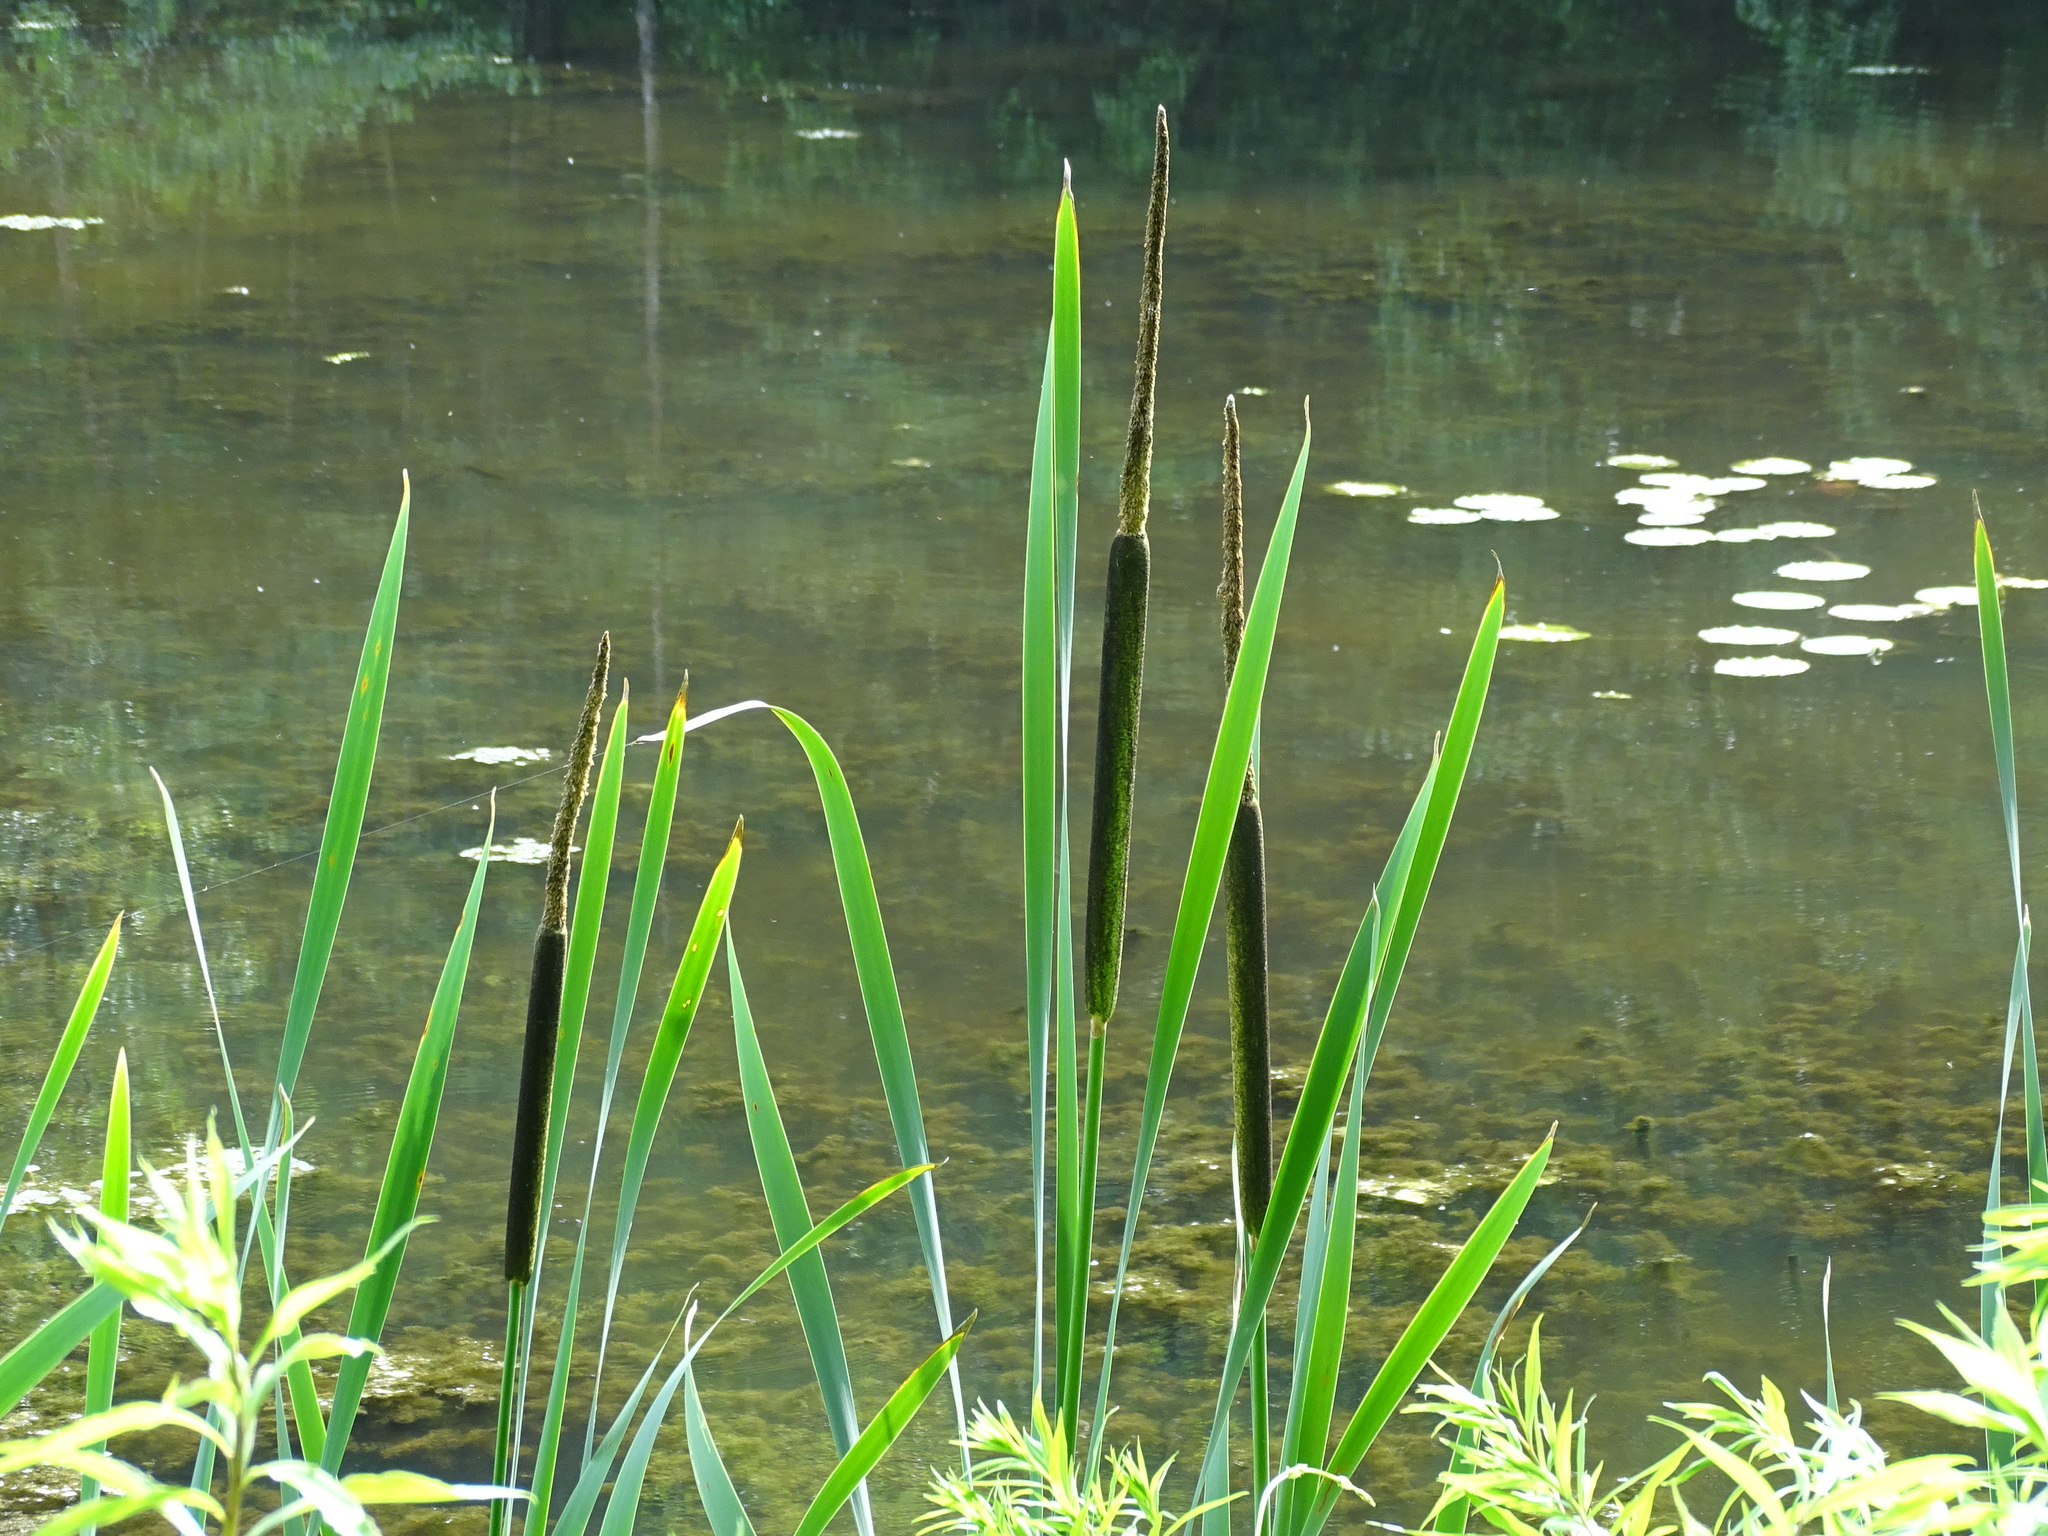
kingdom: Plantae
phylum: Tracheophyta
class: Liliopsida
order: Poales
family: Typhaceae
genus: Typha
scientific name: Typha latifolia
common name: Broadleaf cattail
